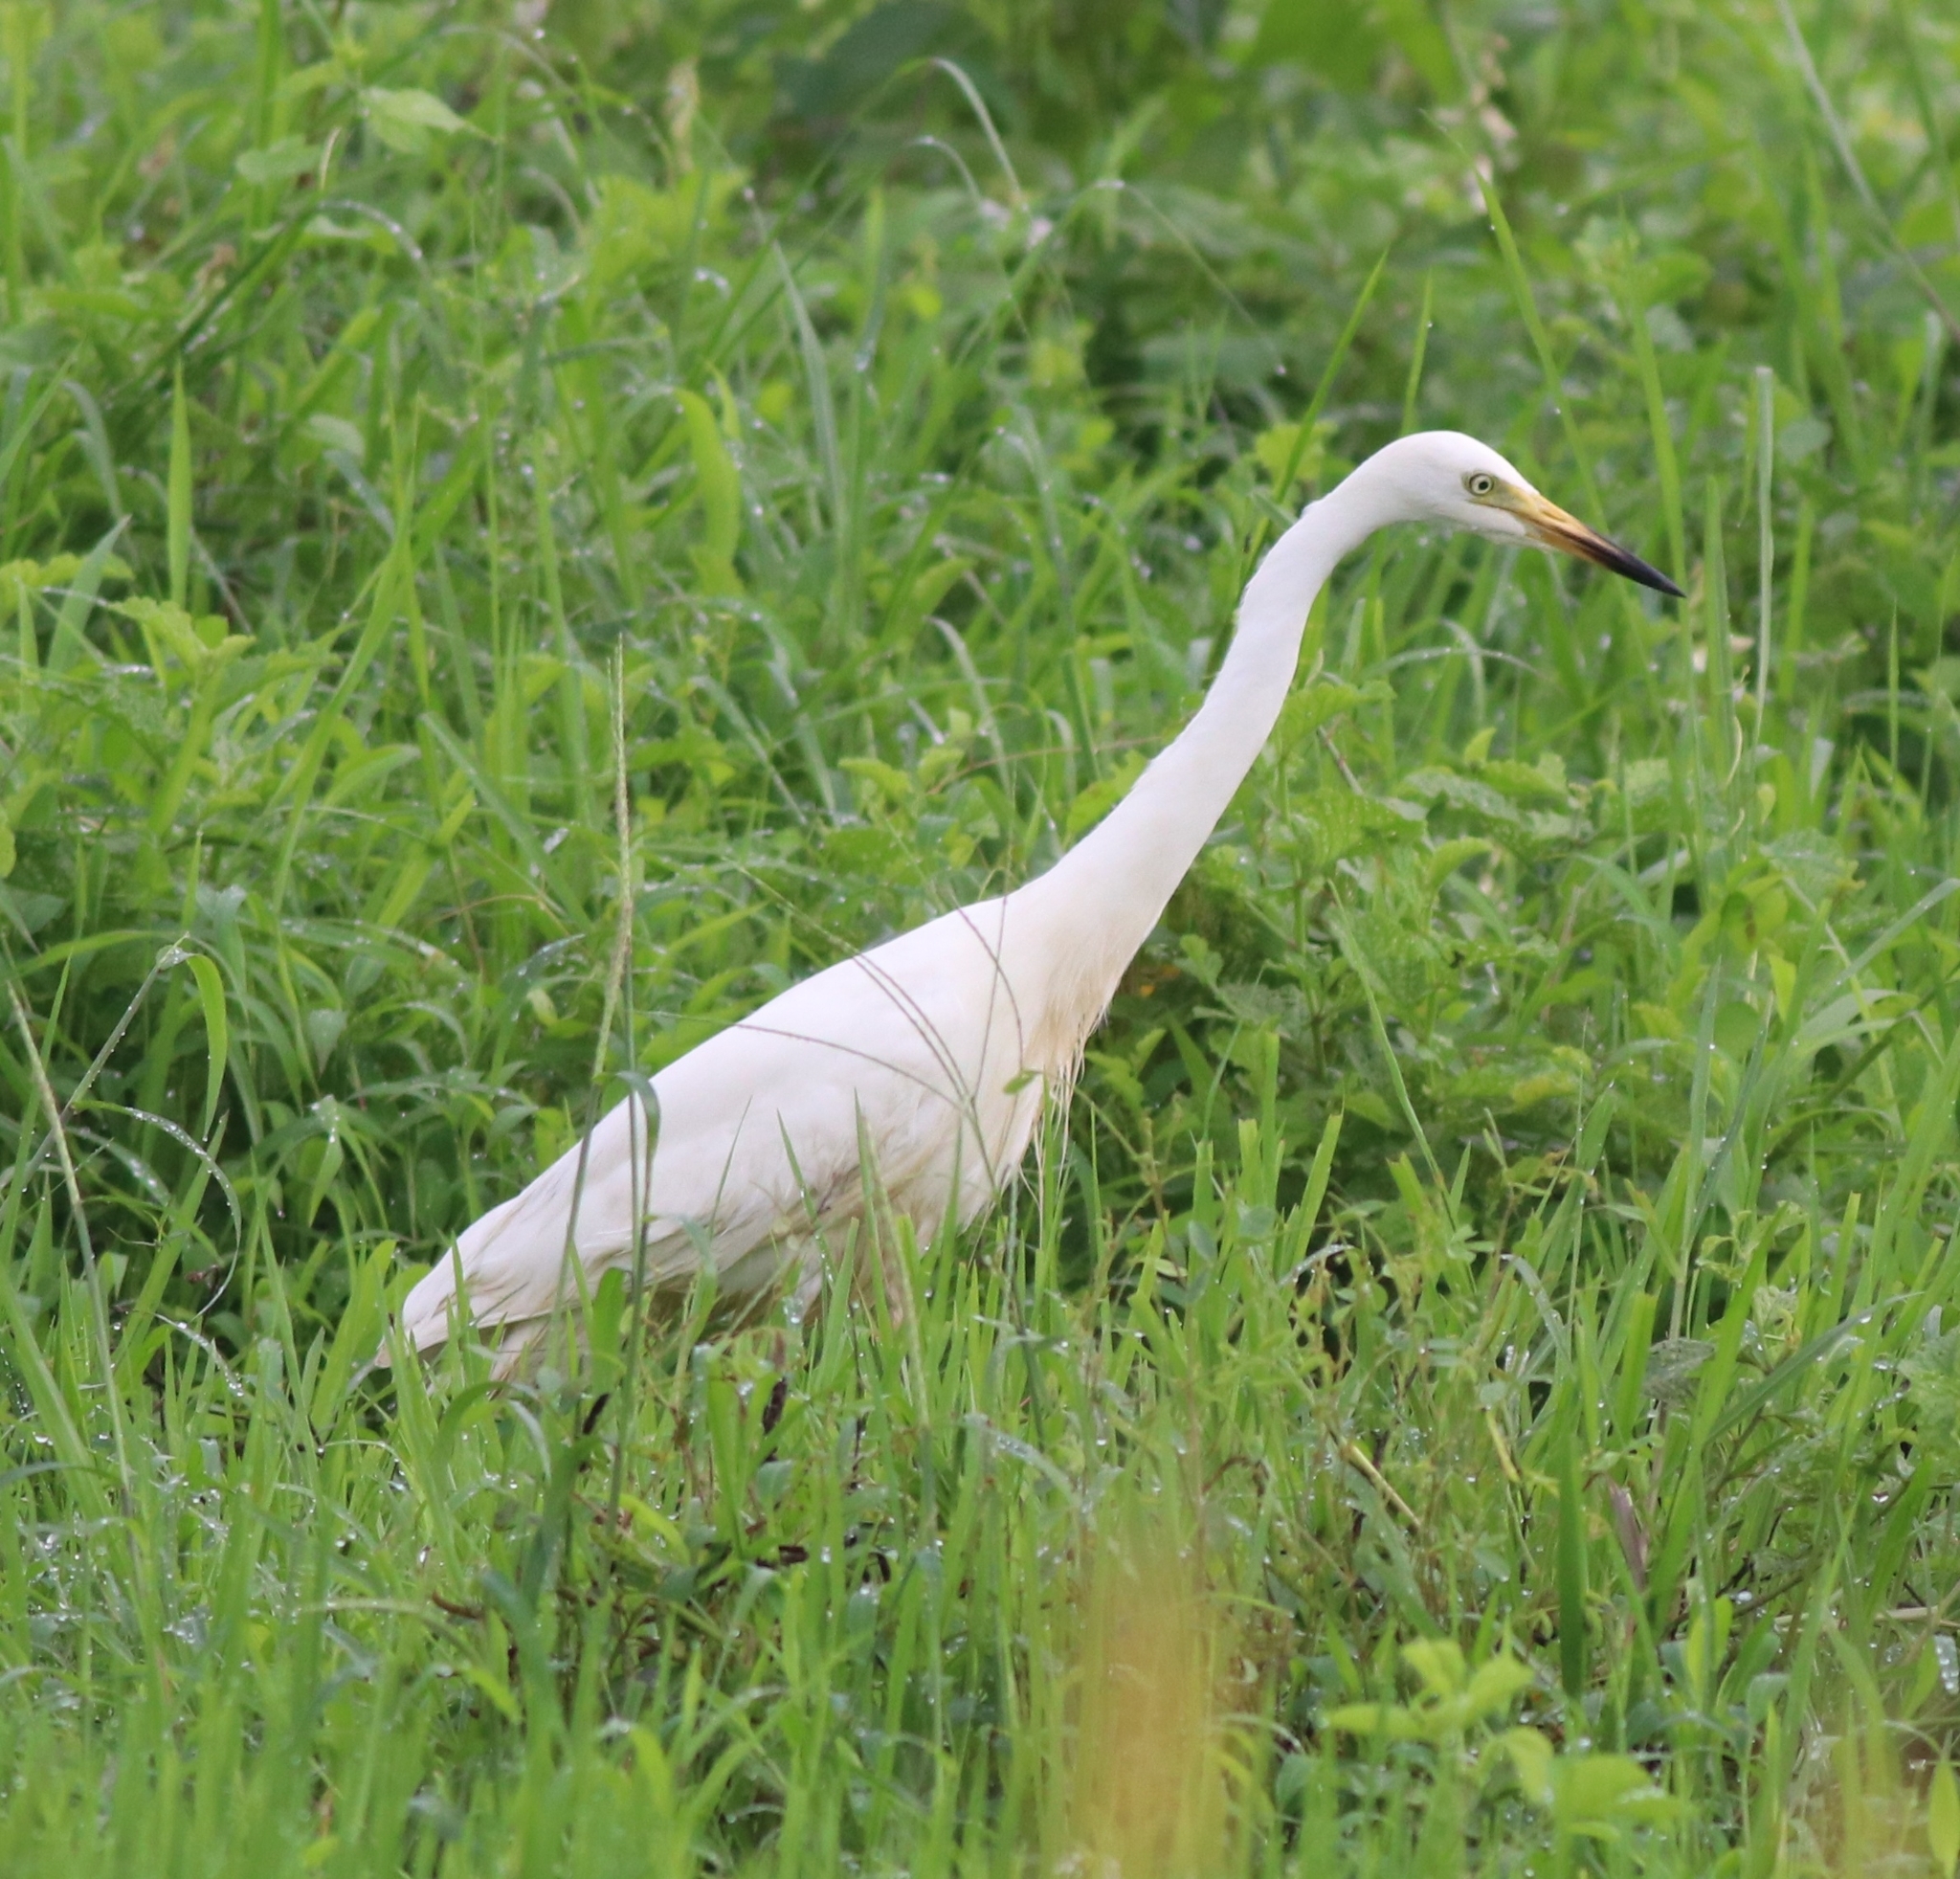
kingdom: Animalia
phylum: Chordata
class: Aves
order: Pelecaniformes
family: Ardeidae
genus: Egretta
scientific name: Egretta intermedia
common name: Intermediate egret
